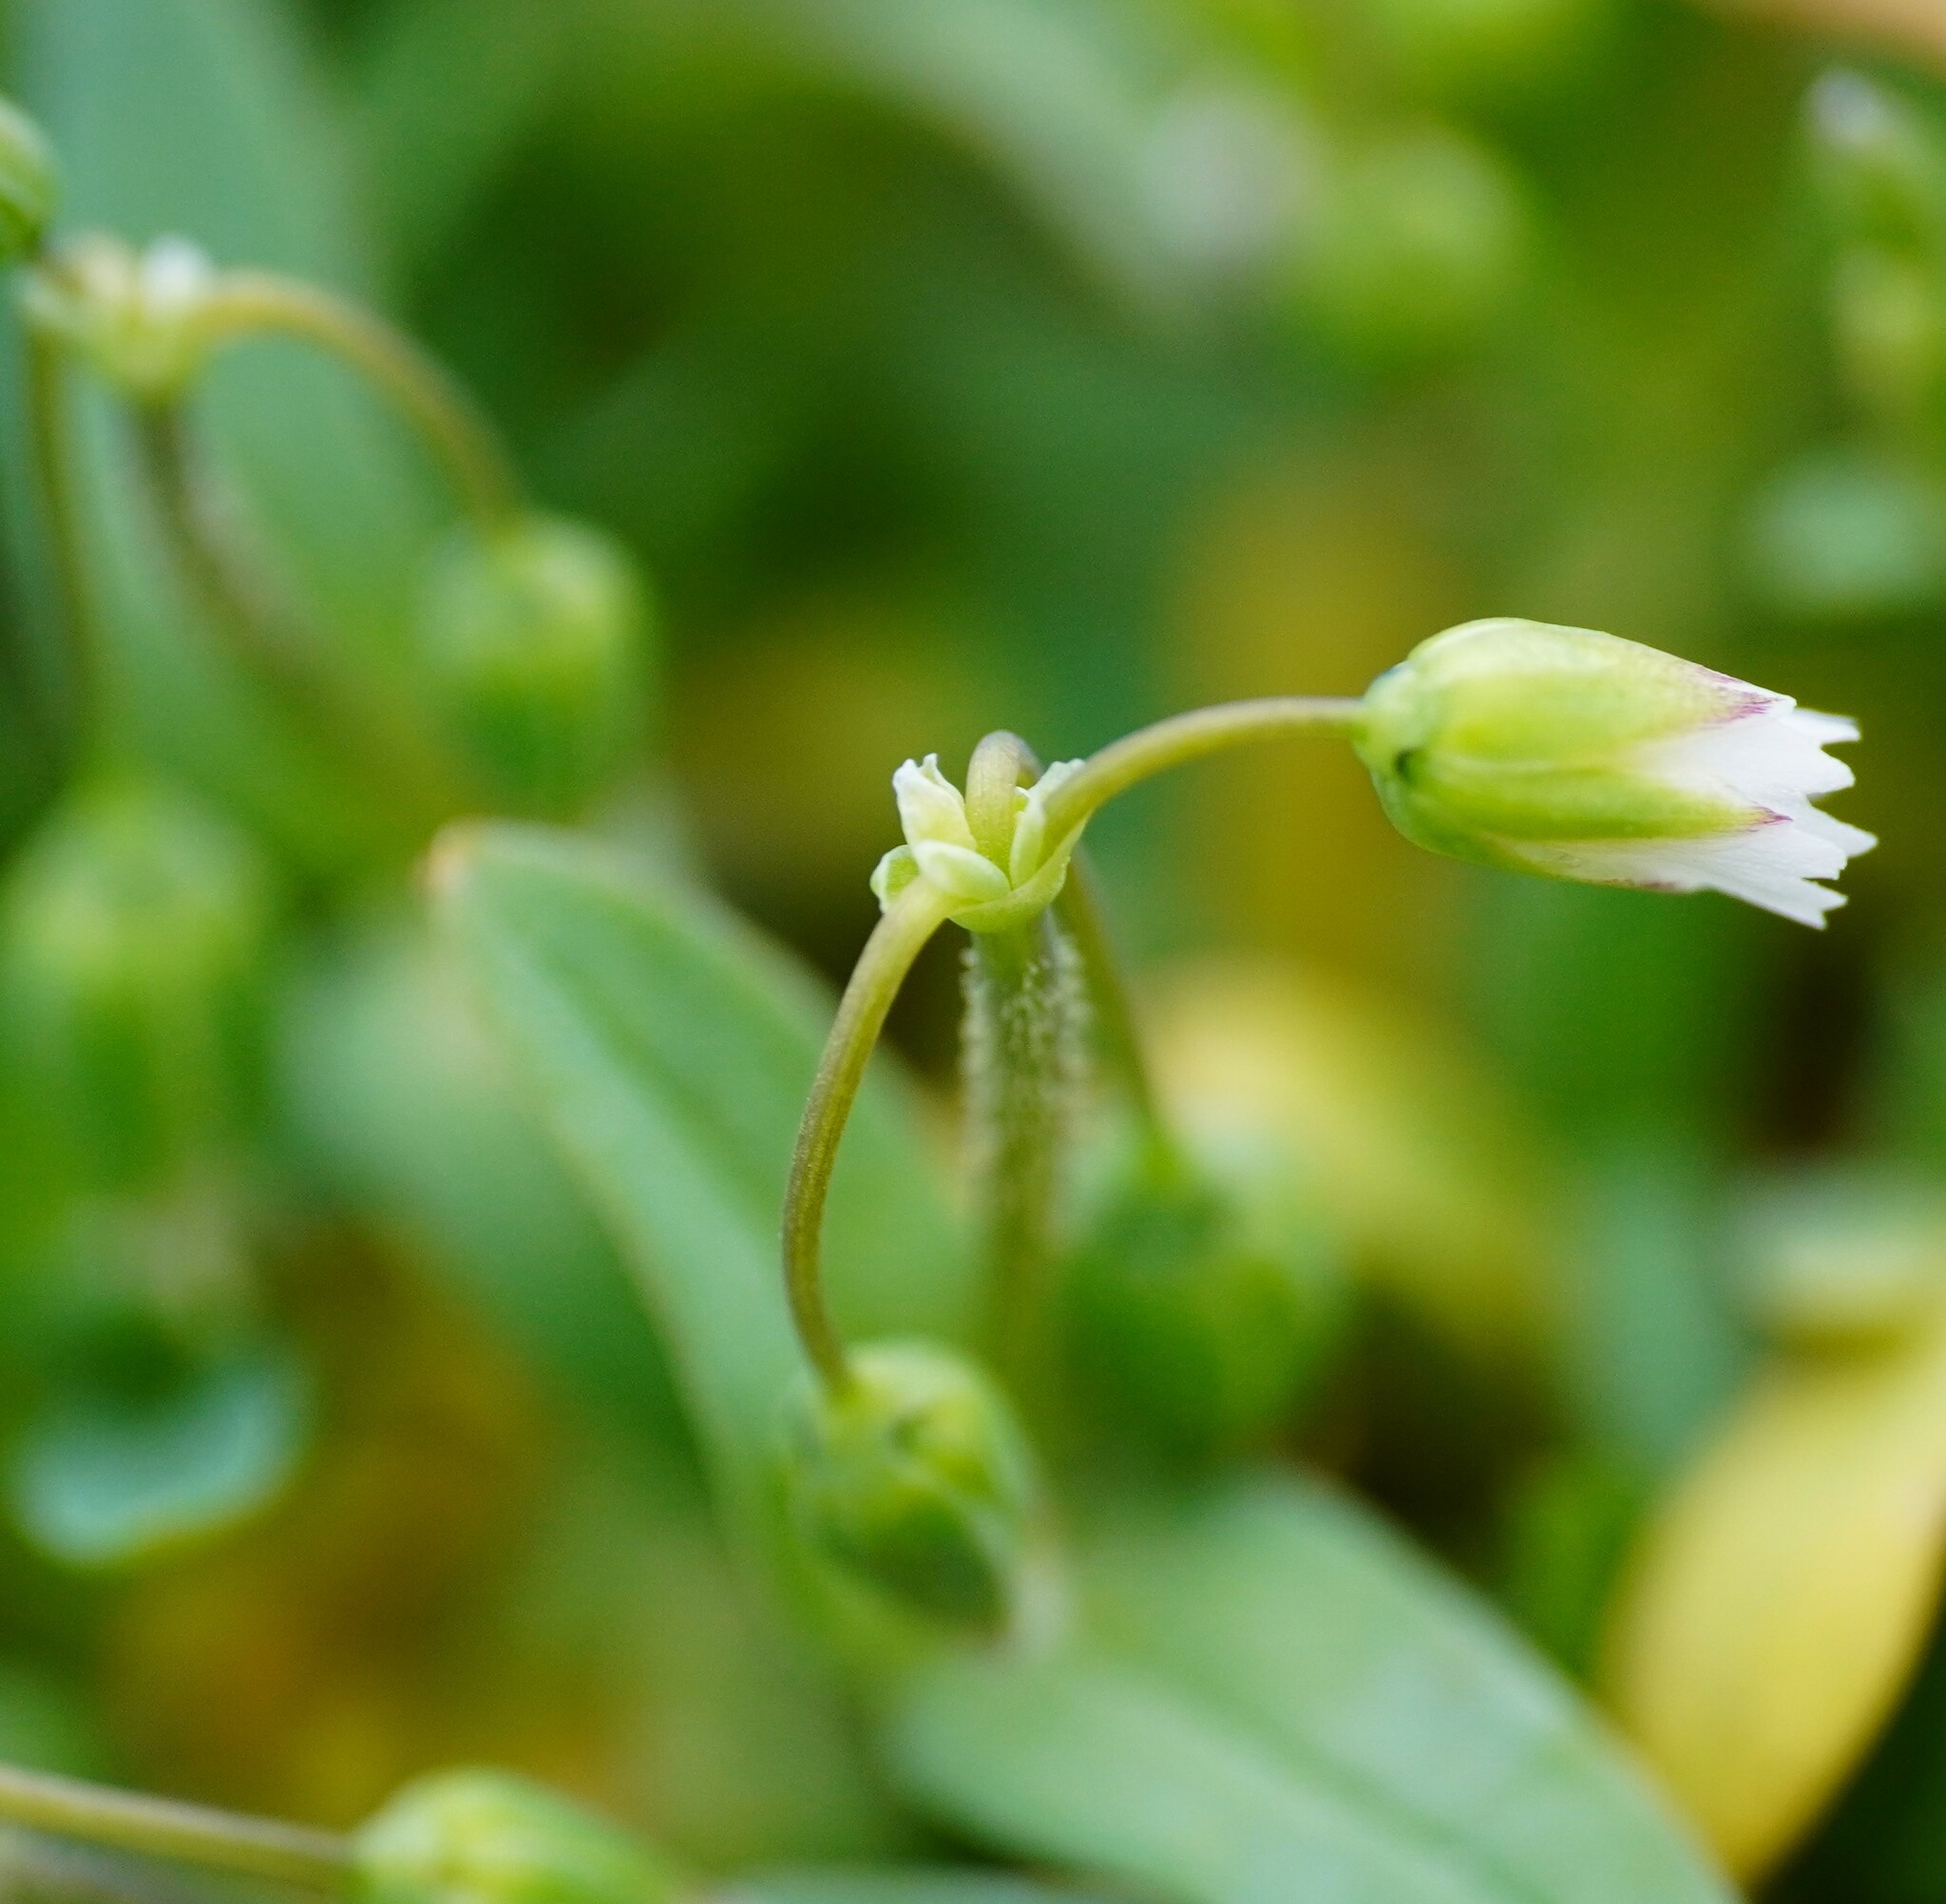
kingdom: Plantae
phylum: Tracheophyta
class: Magnoliopsida
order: Caryophyllales
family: Caryophyllaceae
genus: Holosteum
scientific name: Holosteum umbellatum
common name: Jagged chickweed
